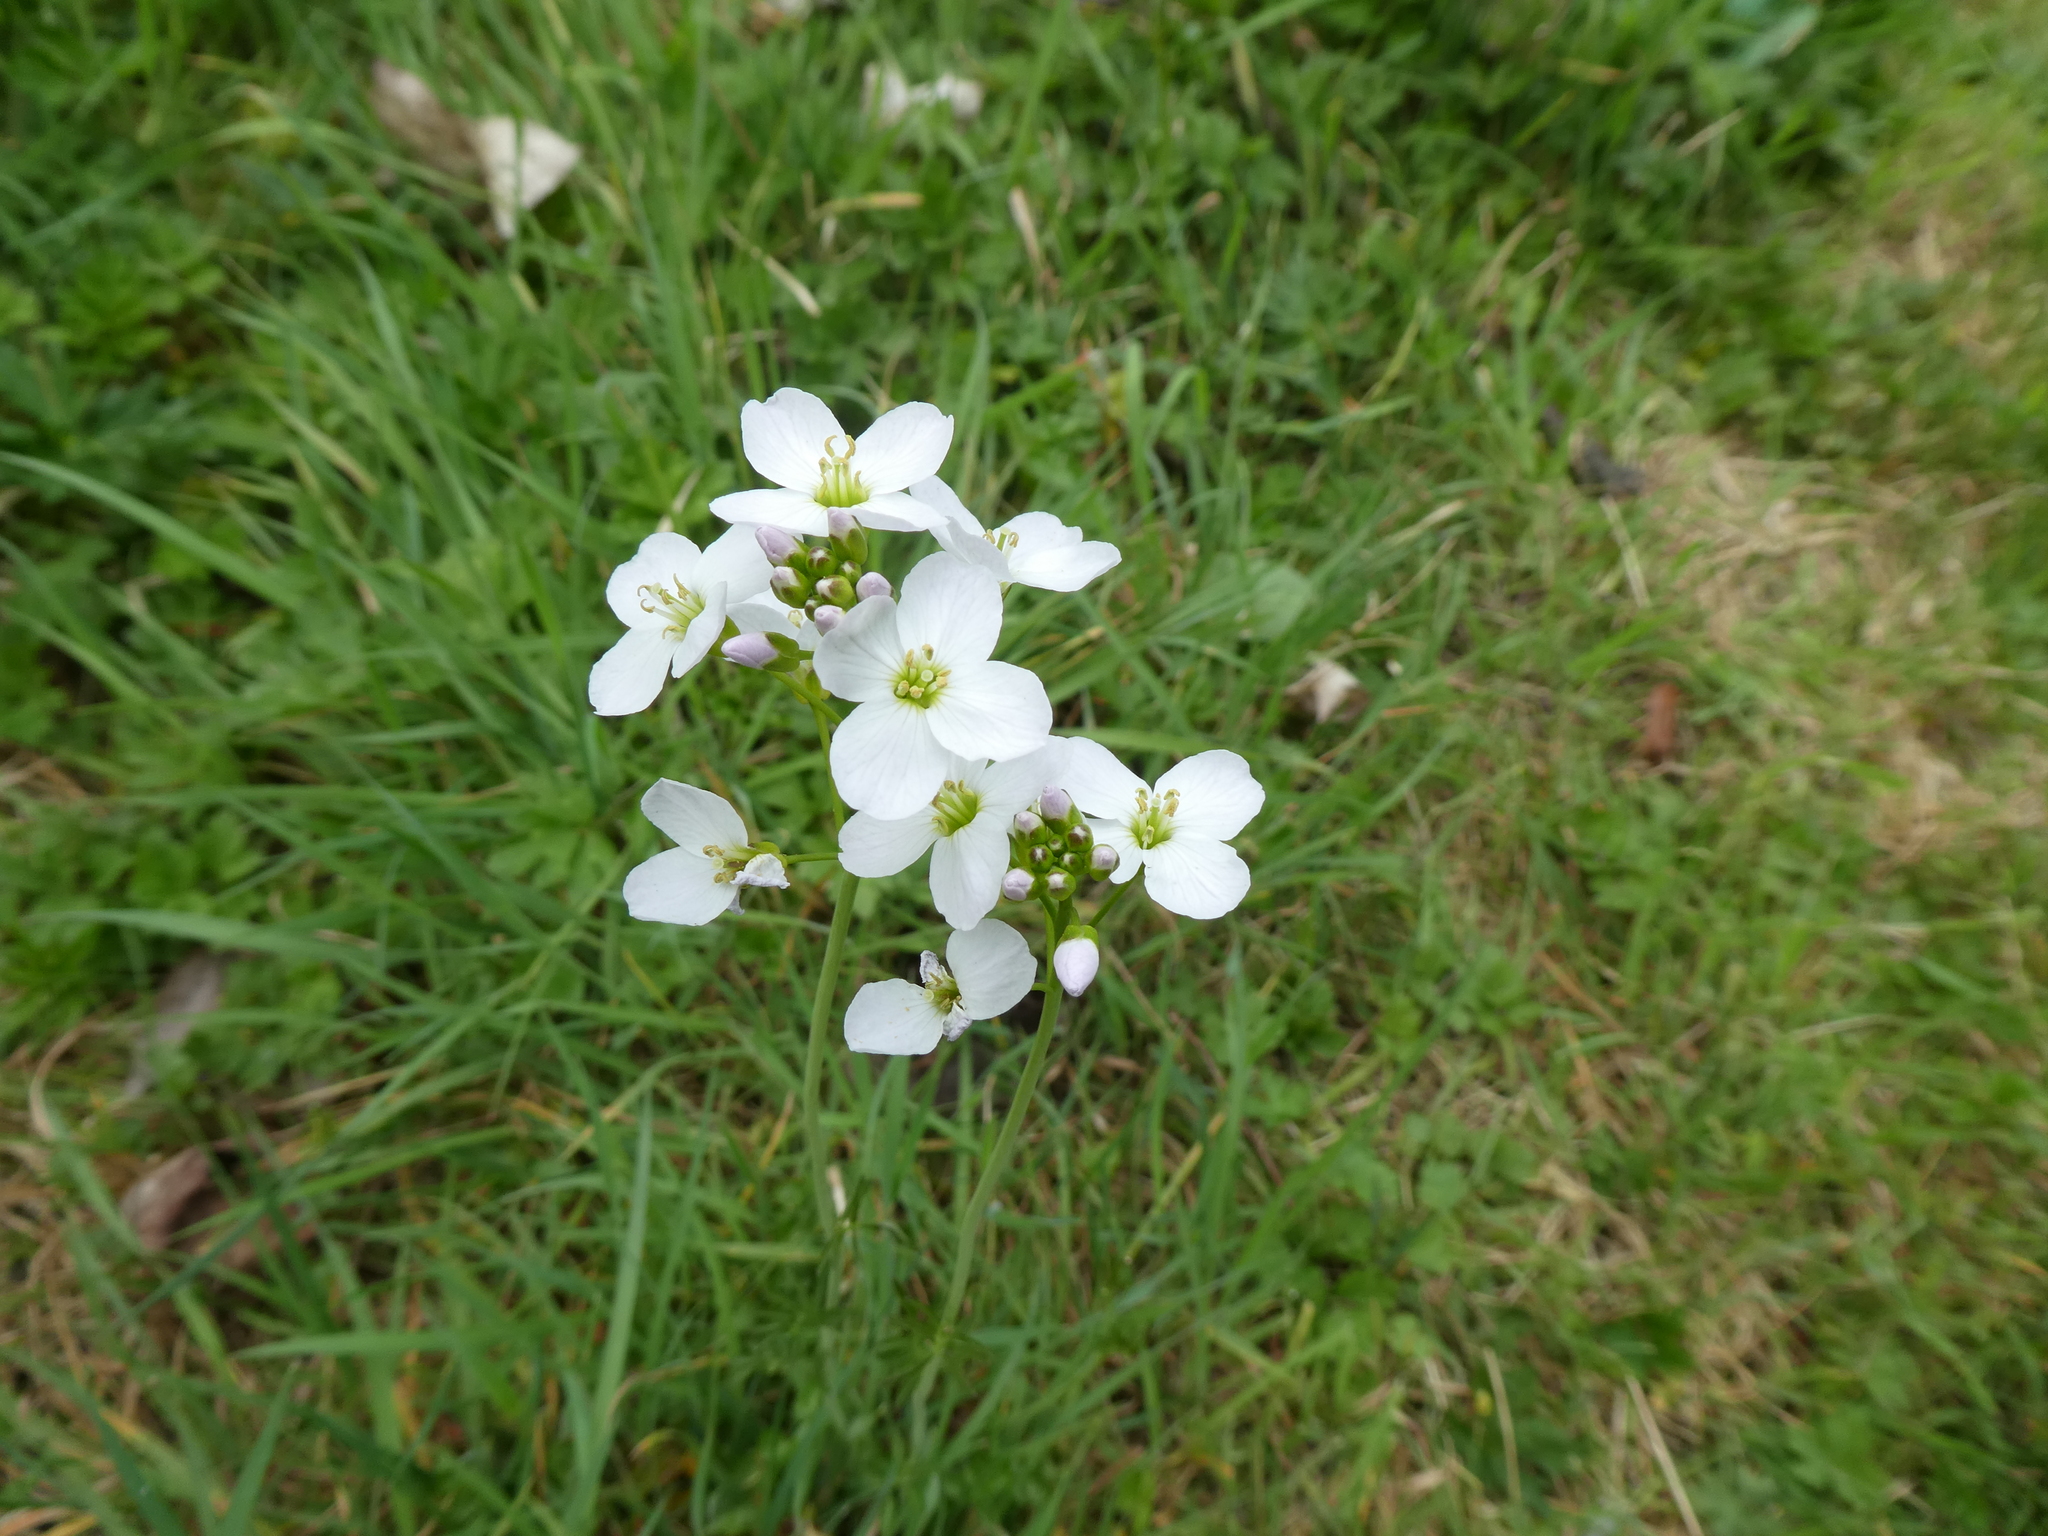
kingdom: Plantae
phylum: Tracheophyta
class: Magnoliopsida
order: Brassicales
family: Brassicaceae
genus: Cardamine
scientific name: Cardamine pratensis
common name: Cuckoo flower
